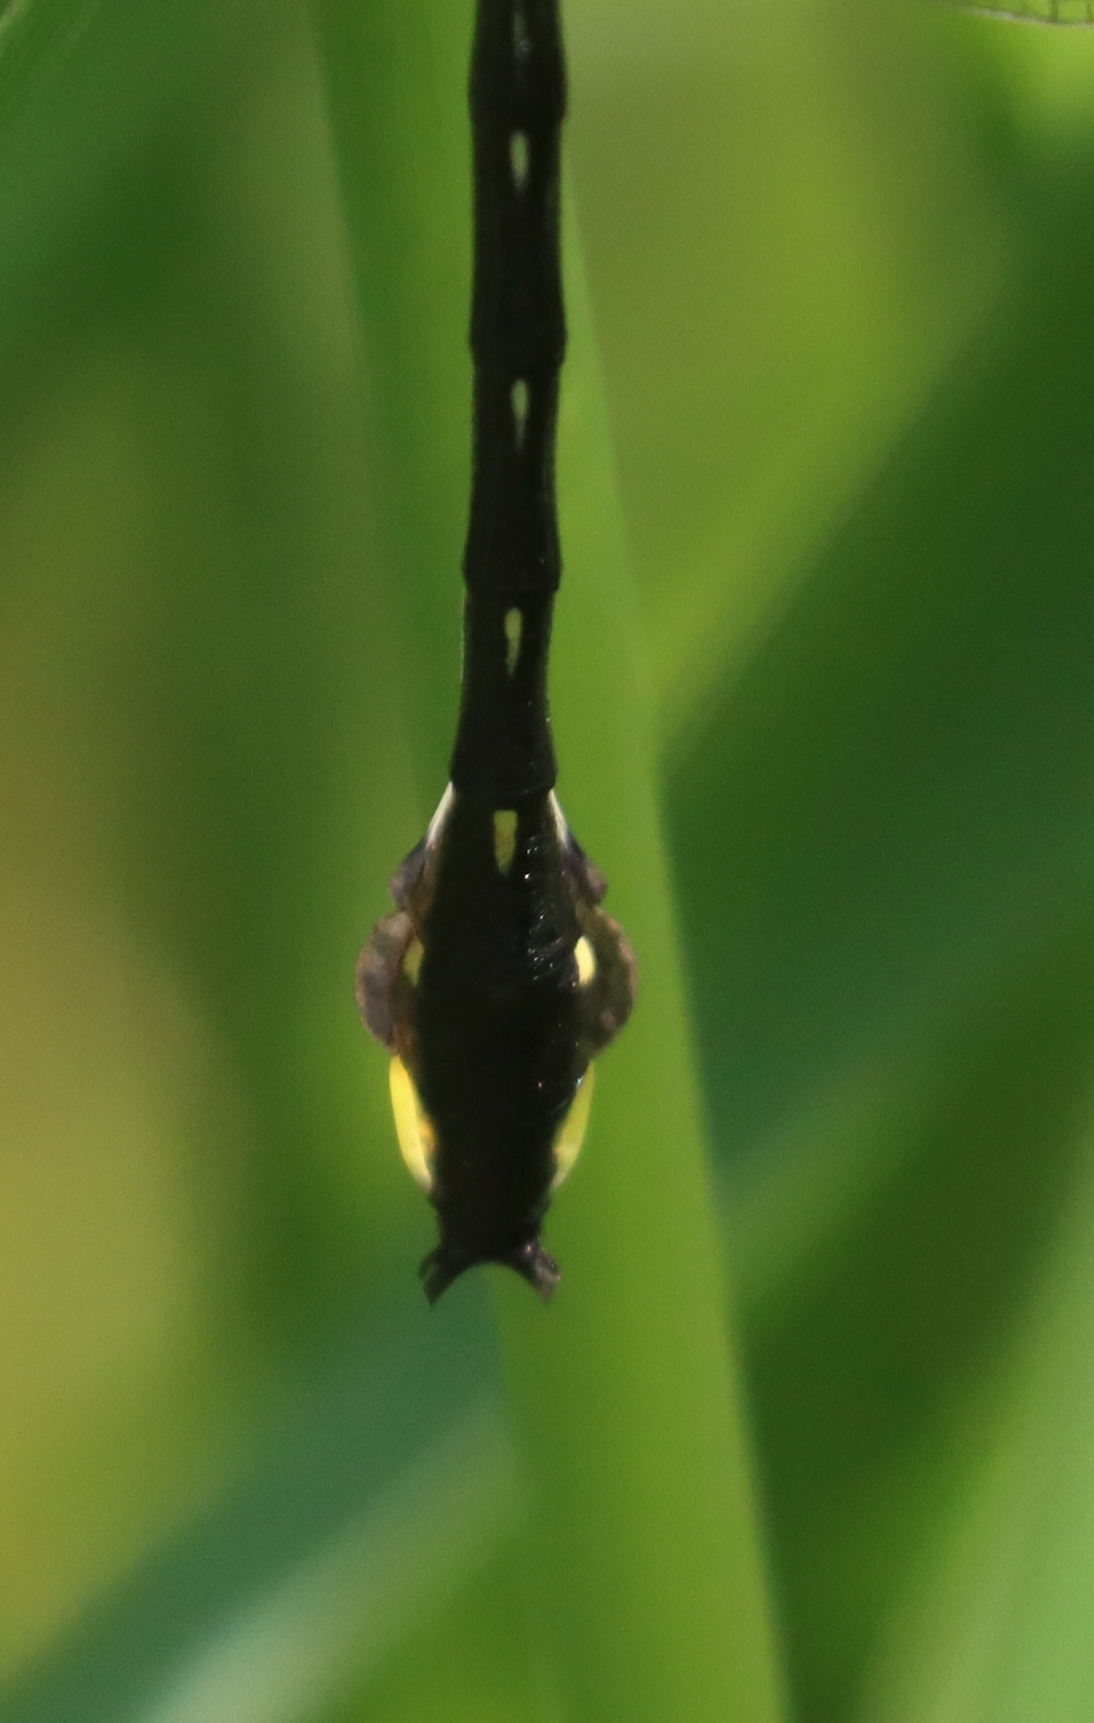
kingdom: Animalia
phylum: Arthropoda
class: Insecta
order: Odonata
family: Gomphidae
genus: Gomphurus
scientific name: Gomphurus vastus
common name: Cobra clubtail
